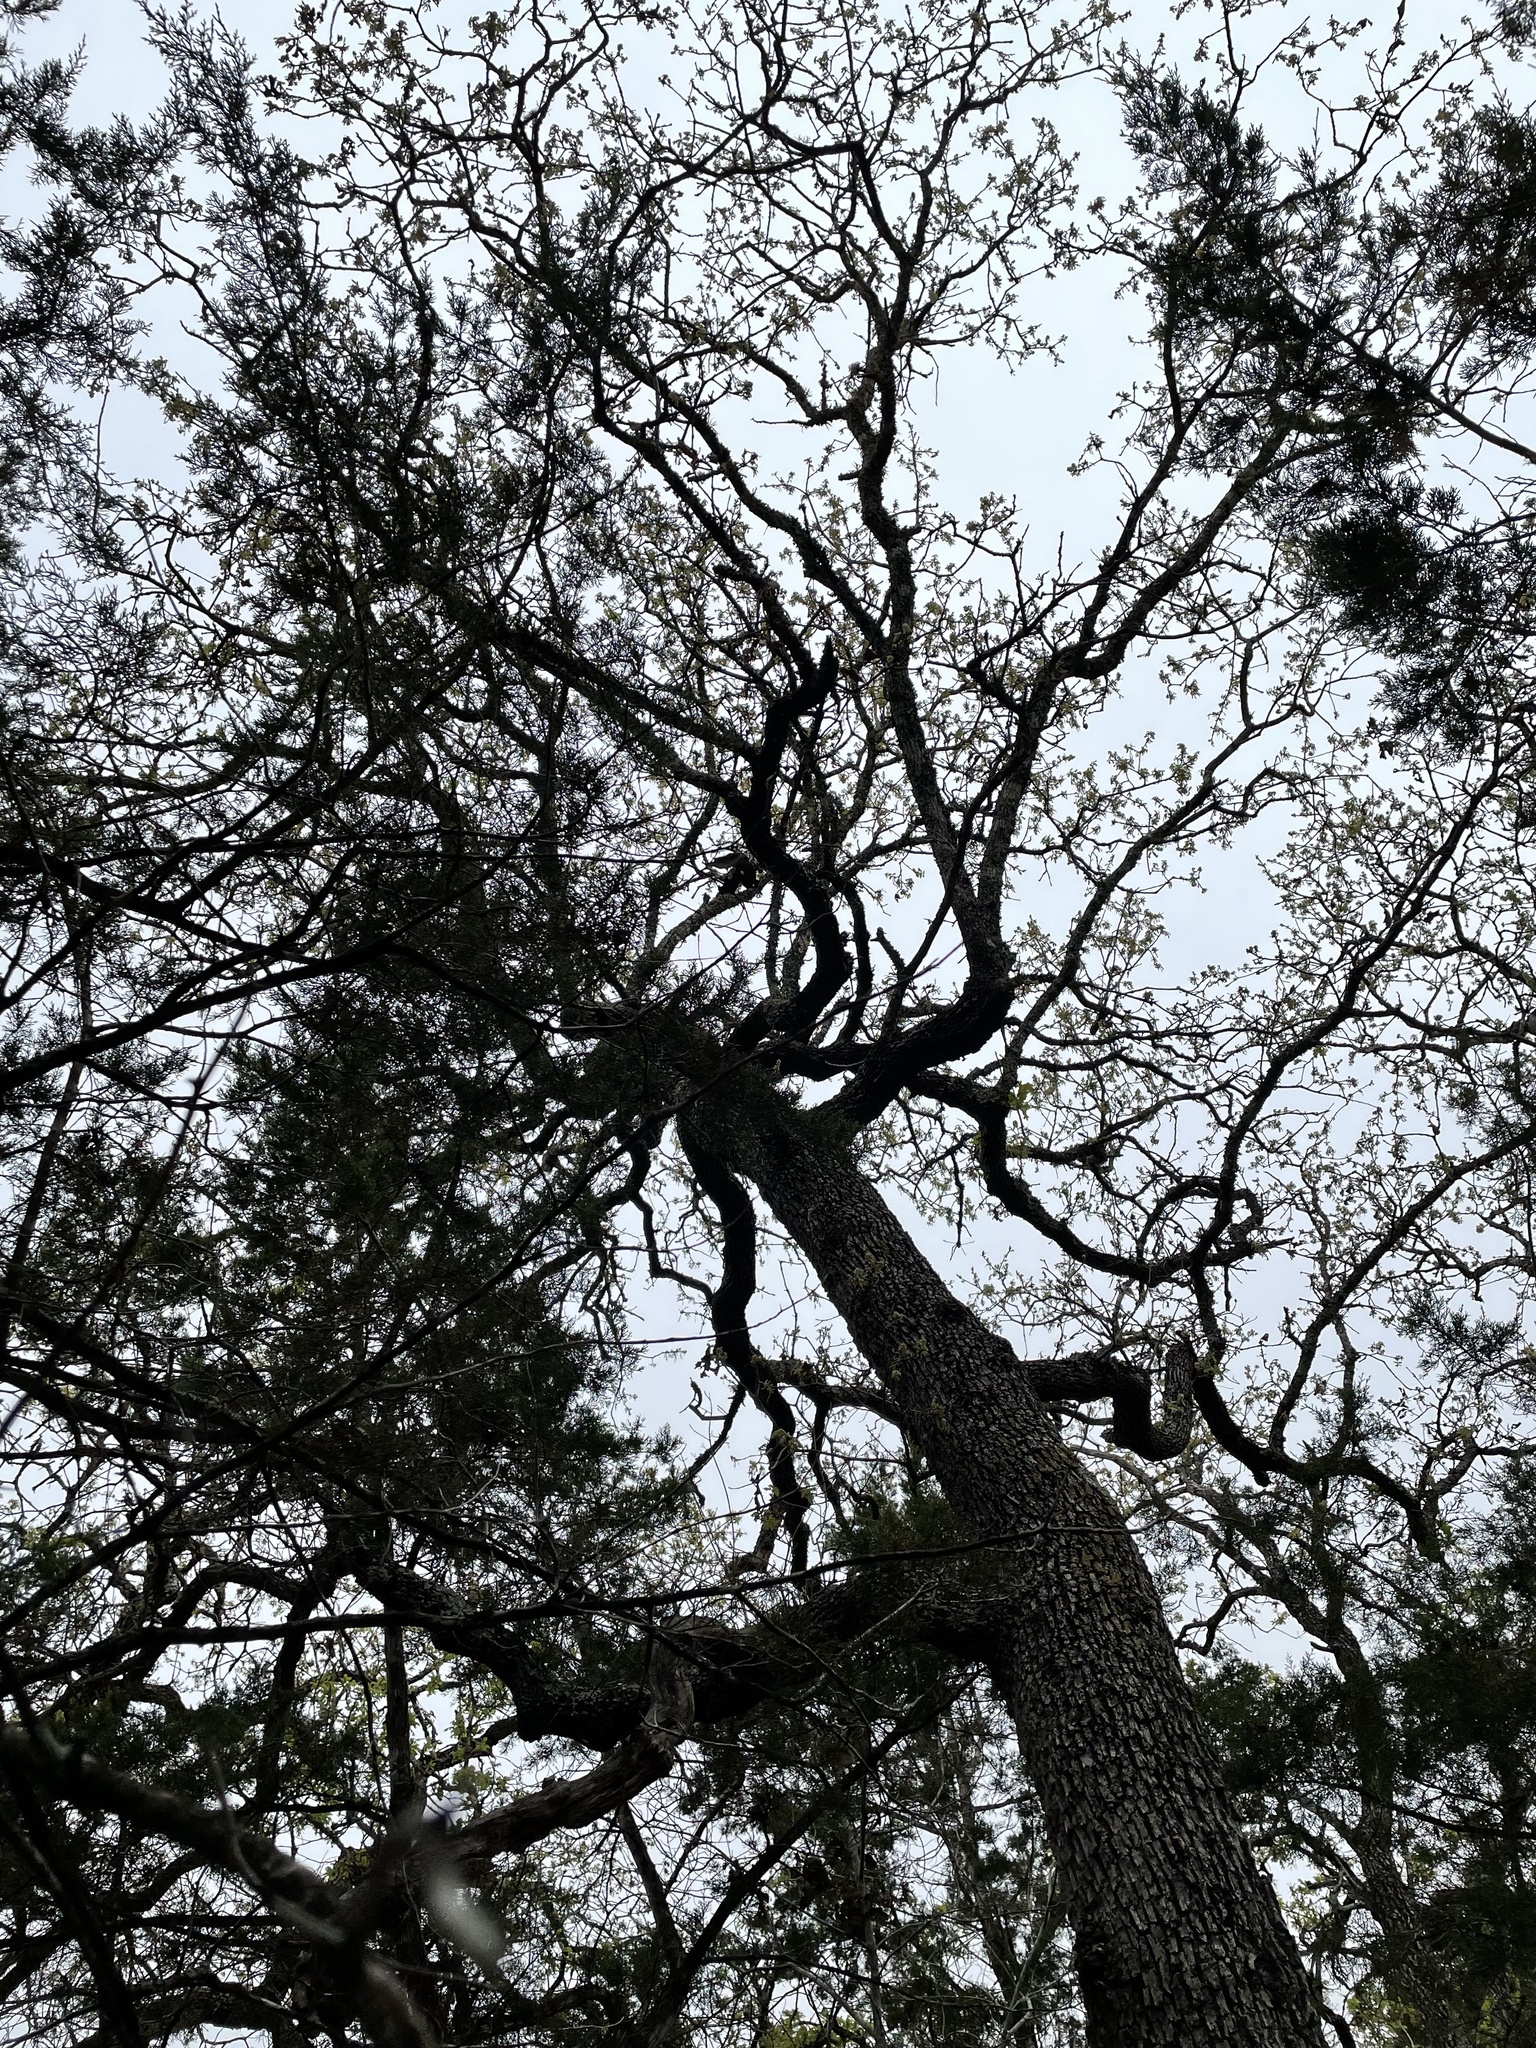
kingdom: Plantae
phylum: Tracheophyta
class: Magnoliopsida
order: Fagales
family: Fagaceae
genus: Quercus
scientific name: Quercus stellata
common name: Post oak
